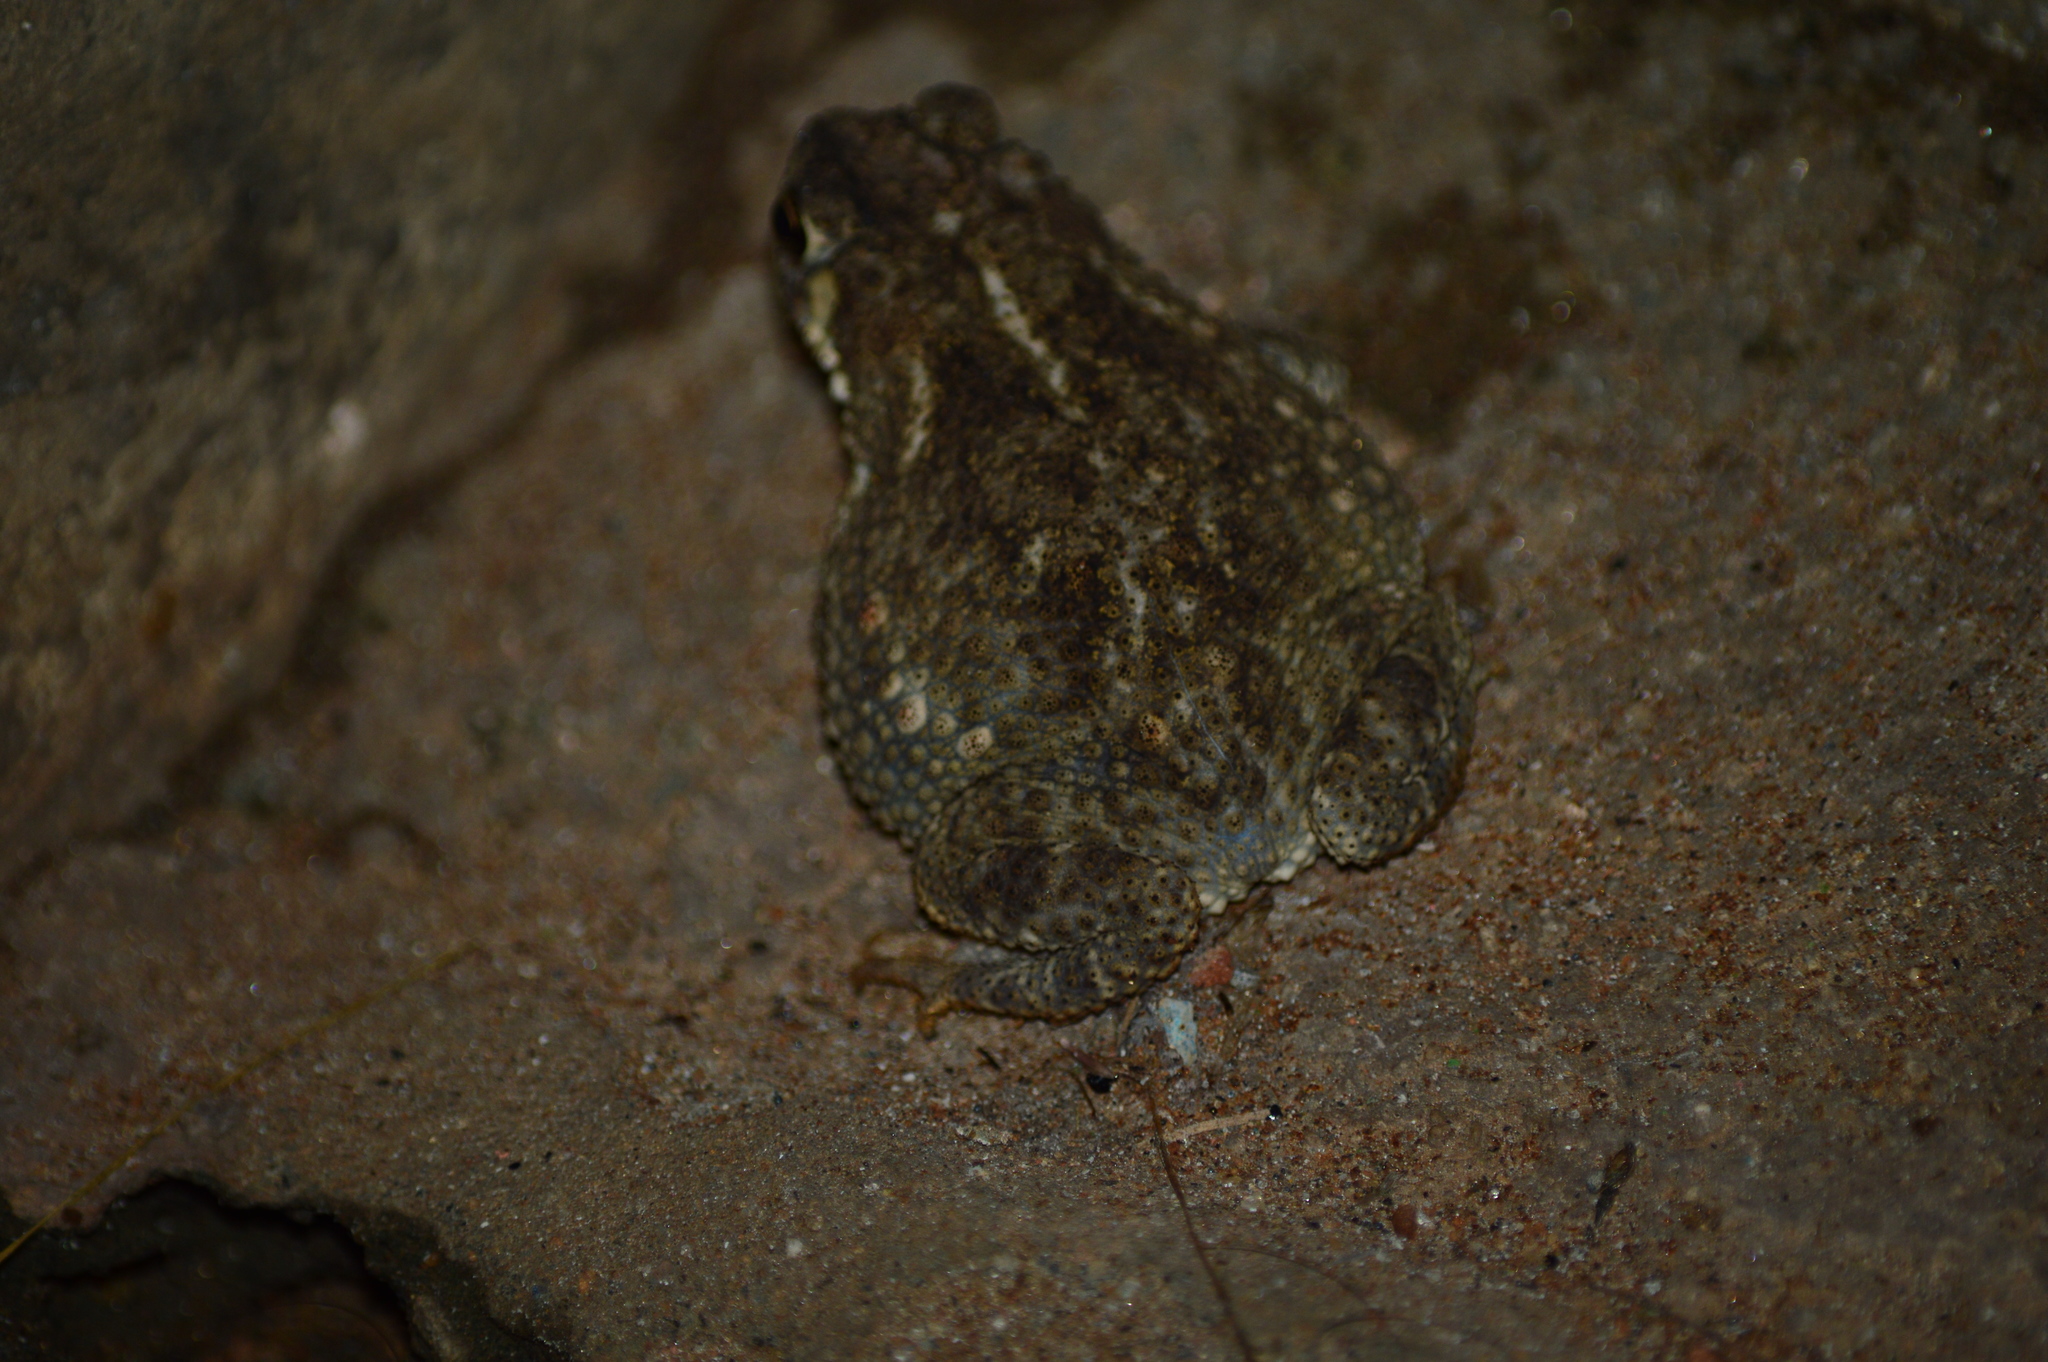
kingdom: Animalia
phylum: Chordata
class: Amphibia
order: Anura
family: Bufonidae
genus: Duttaphrynus
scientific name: Duttaphrynus melanostictus
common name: Common sunda toad
